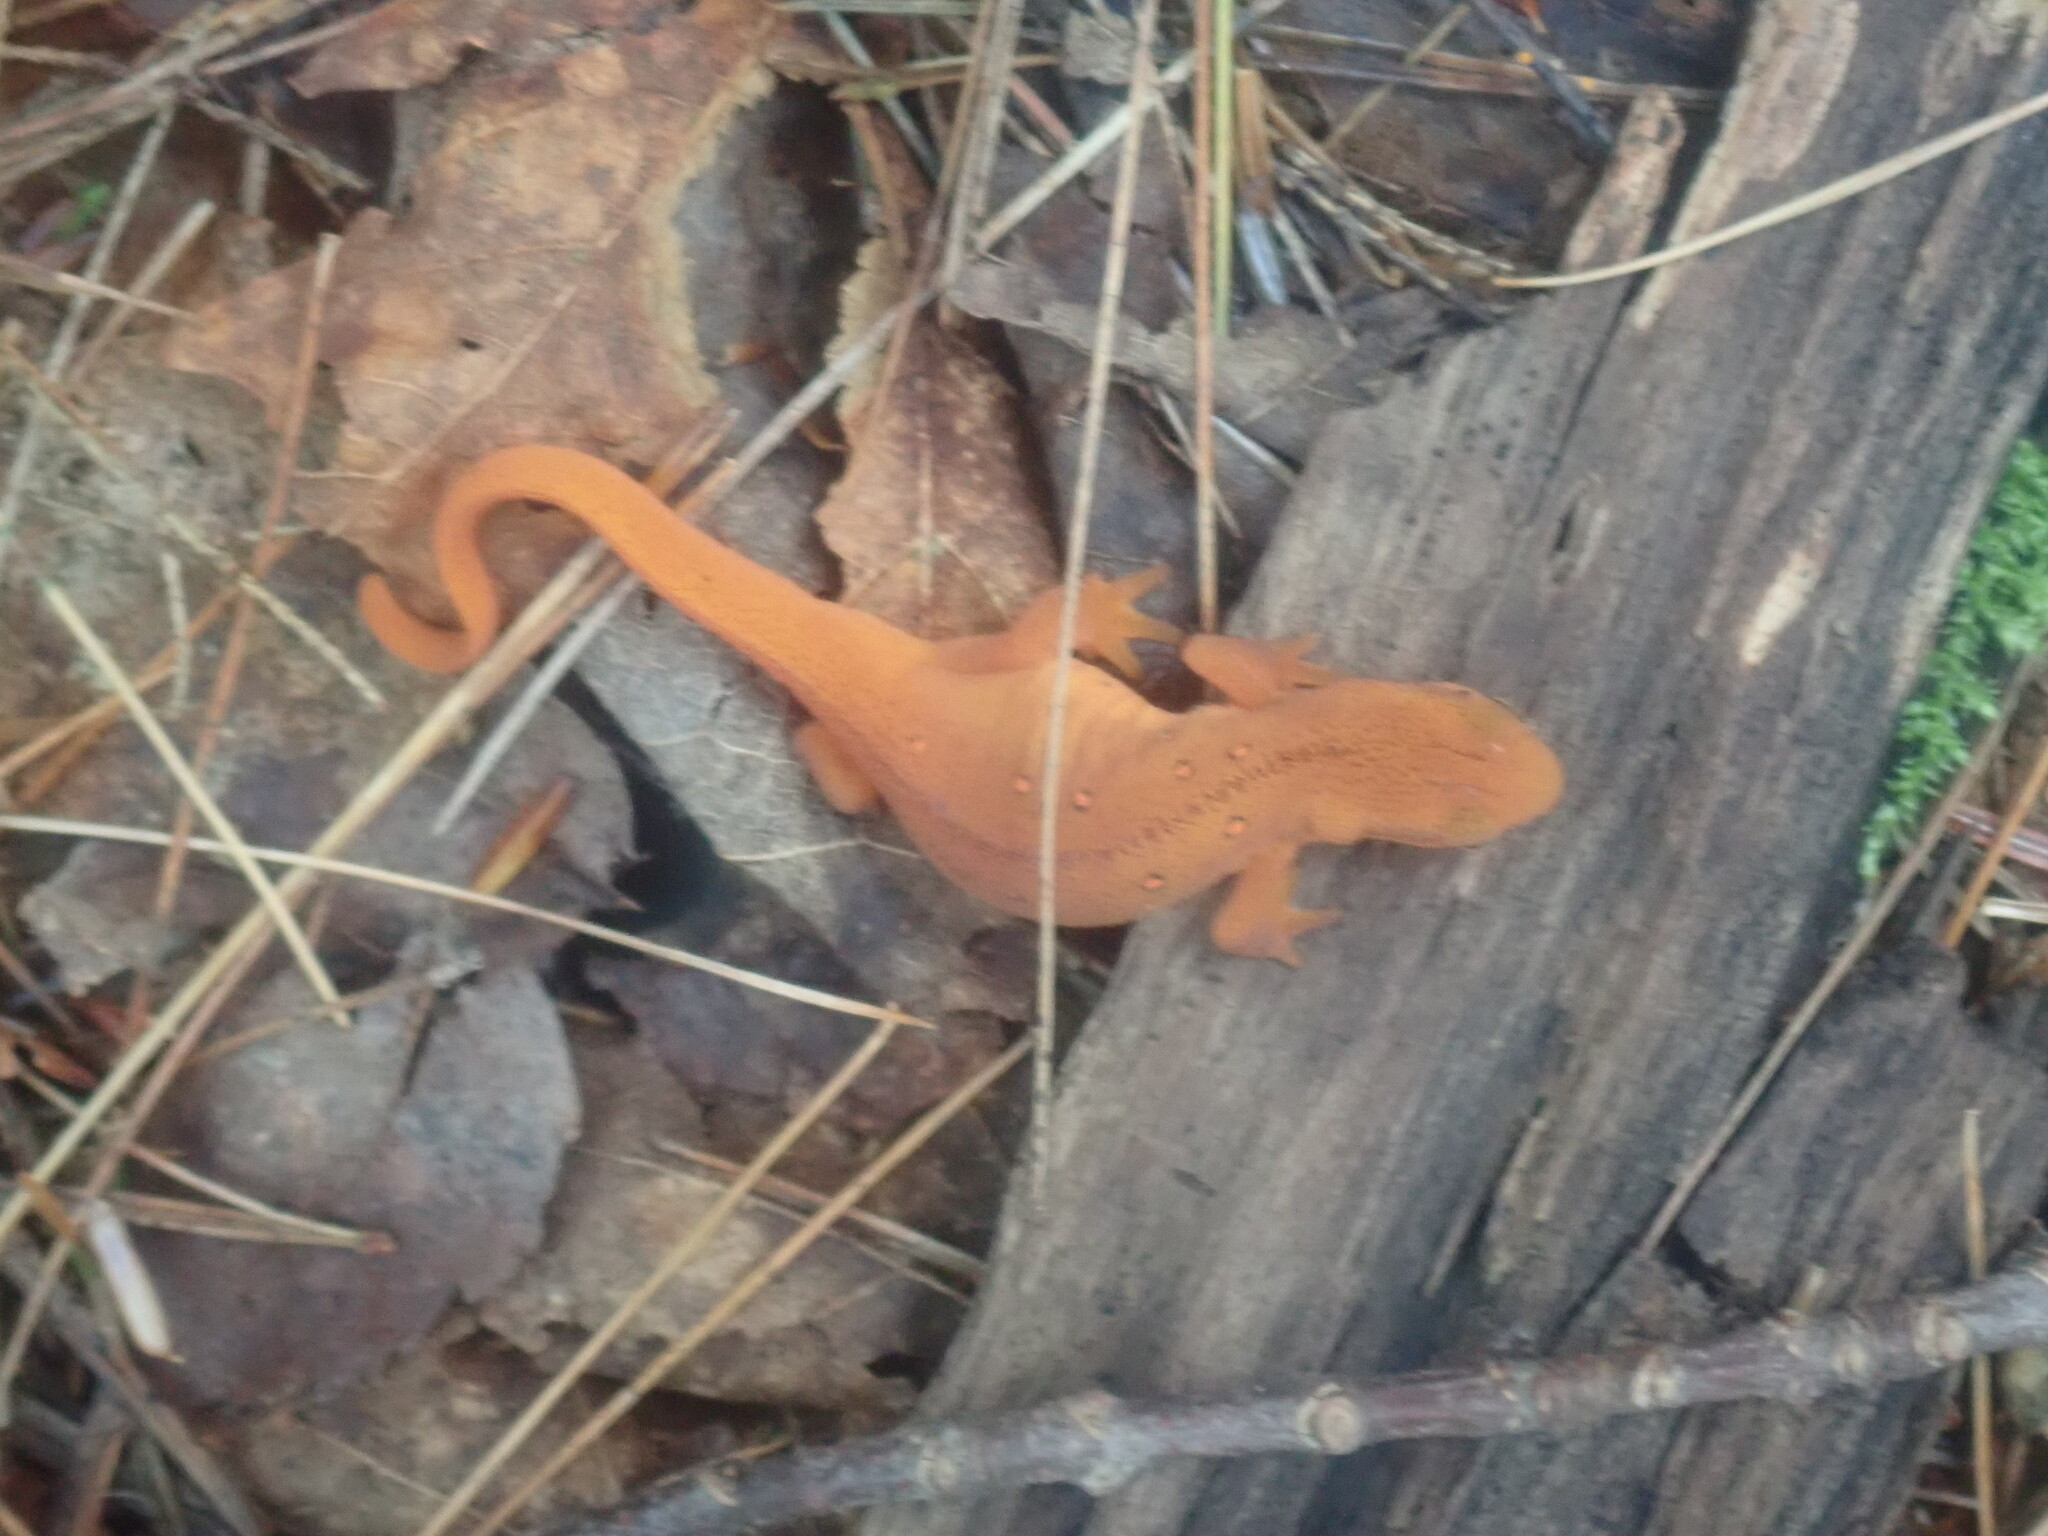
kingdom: Animalia
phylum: Chordata
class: Amphibia
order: Caudata
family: Salamandridae
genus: Notophthalmus
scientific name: Notophthalmus viridescens
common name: Eastern newt
